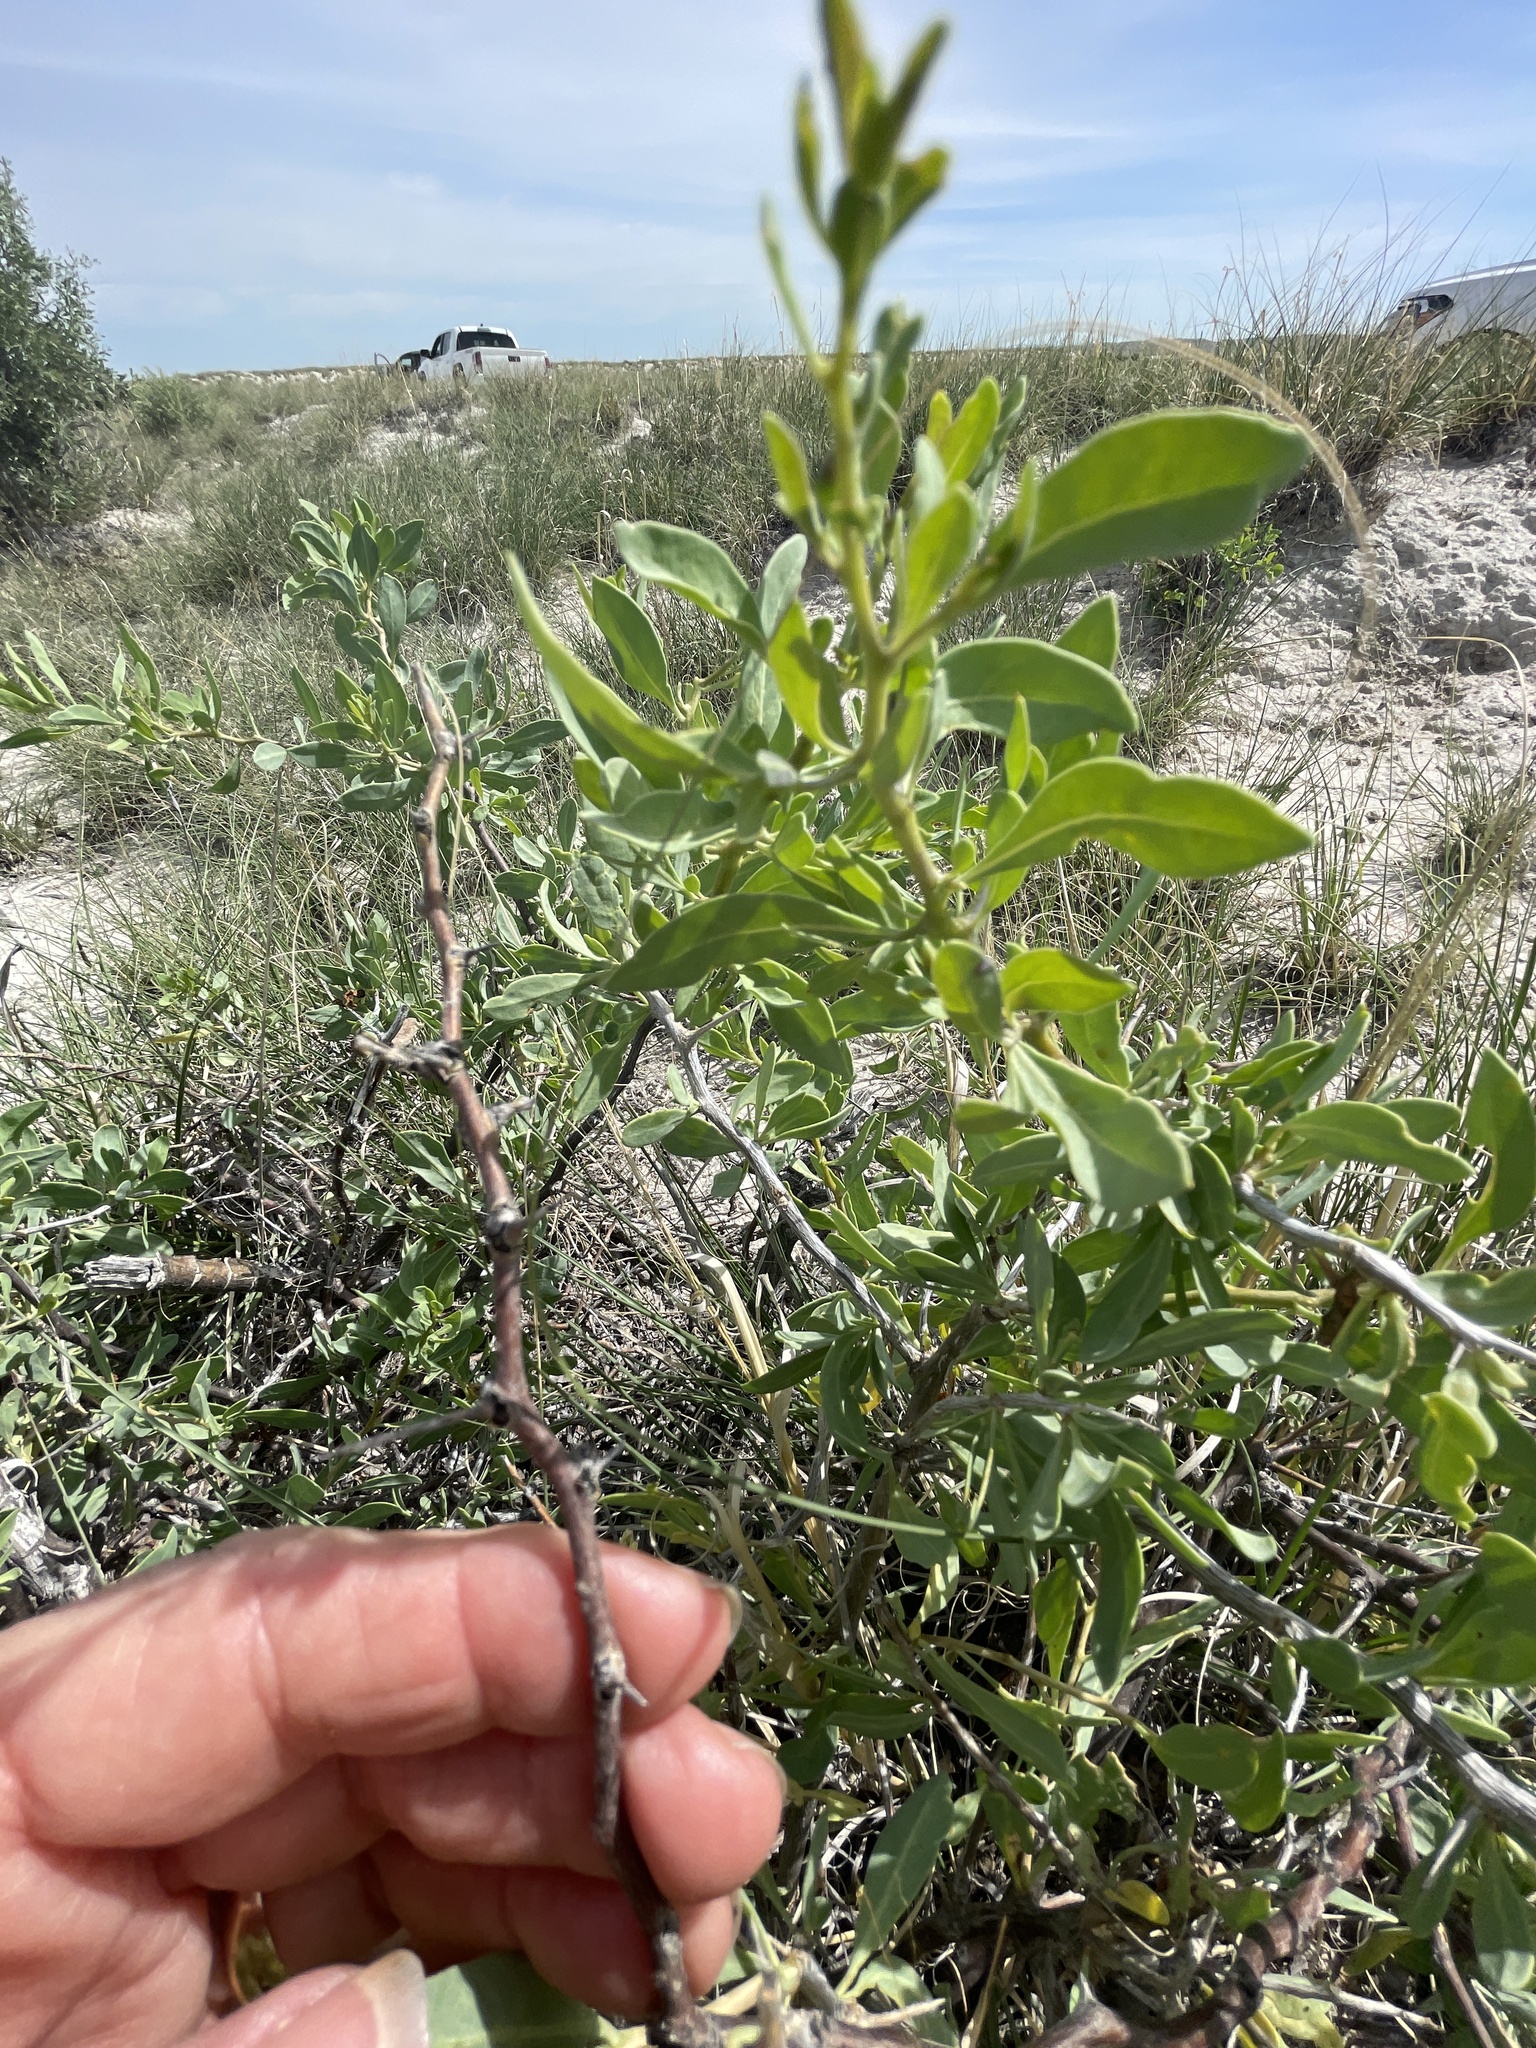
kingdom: Plantae
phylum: Tracheophyta
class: Magnoliopsida
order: Solanales
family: Solanaceae
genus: Lycium
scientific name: Lycium pallidum
